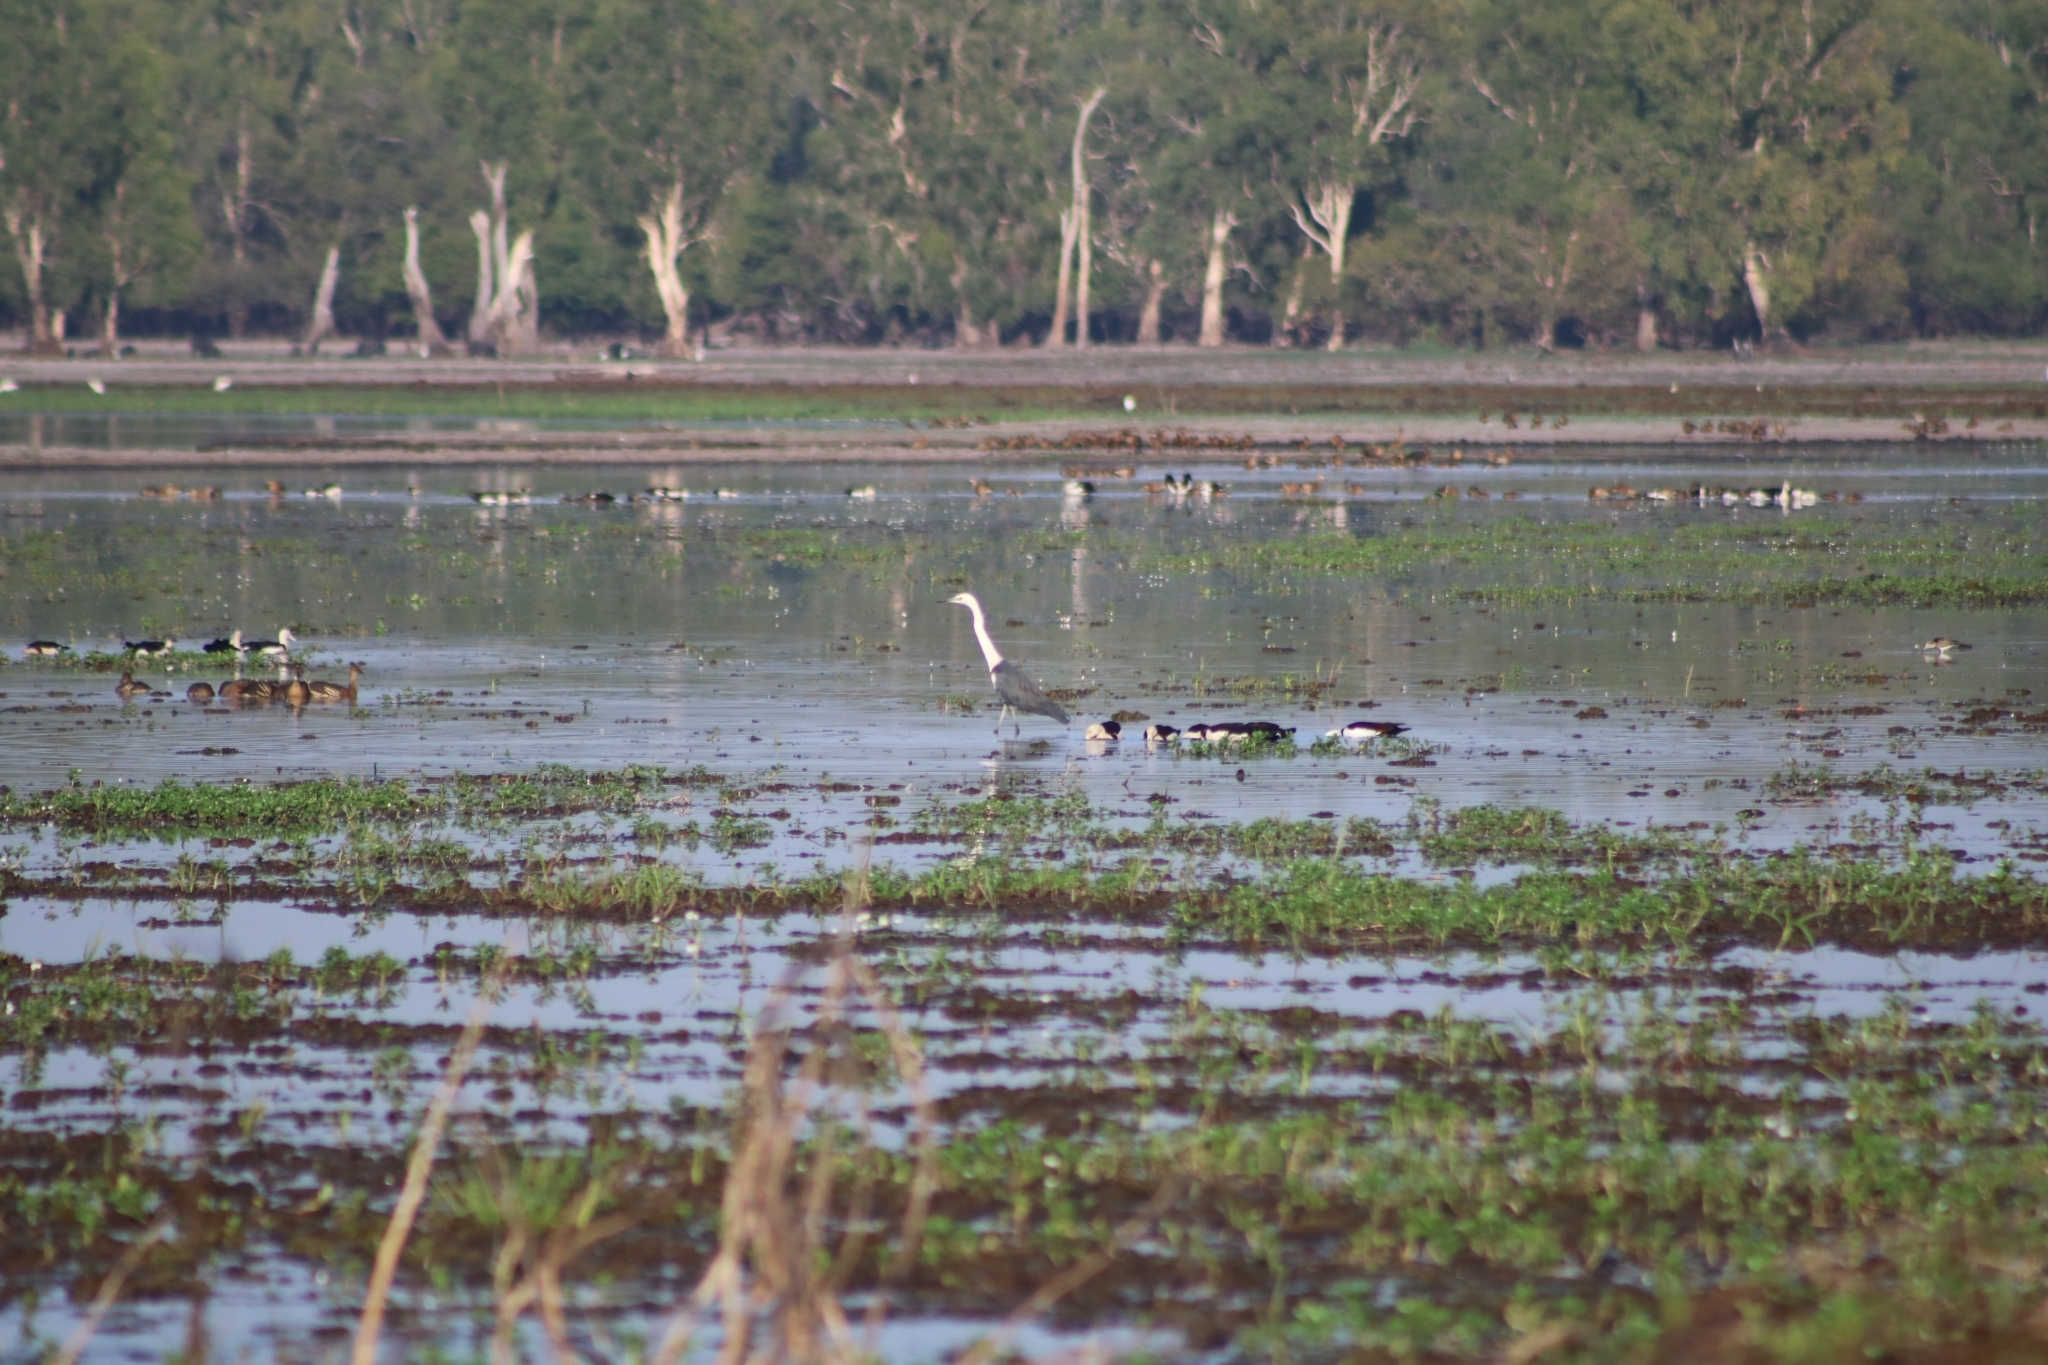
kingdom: Animalia
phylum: Chordata
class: Aves
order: Pelecaniformes
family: Ardeidae
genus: Ardea
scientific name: Ardea pacifica
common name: White-necked heron
